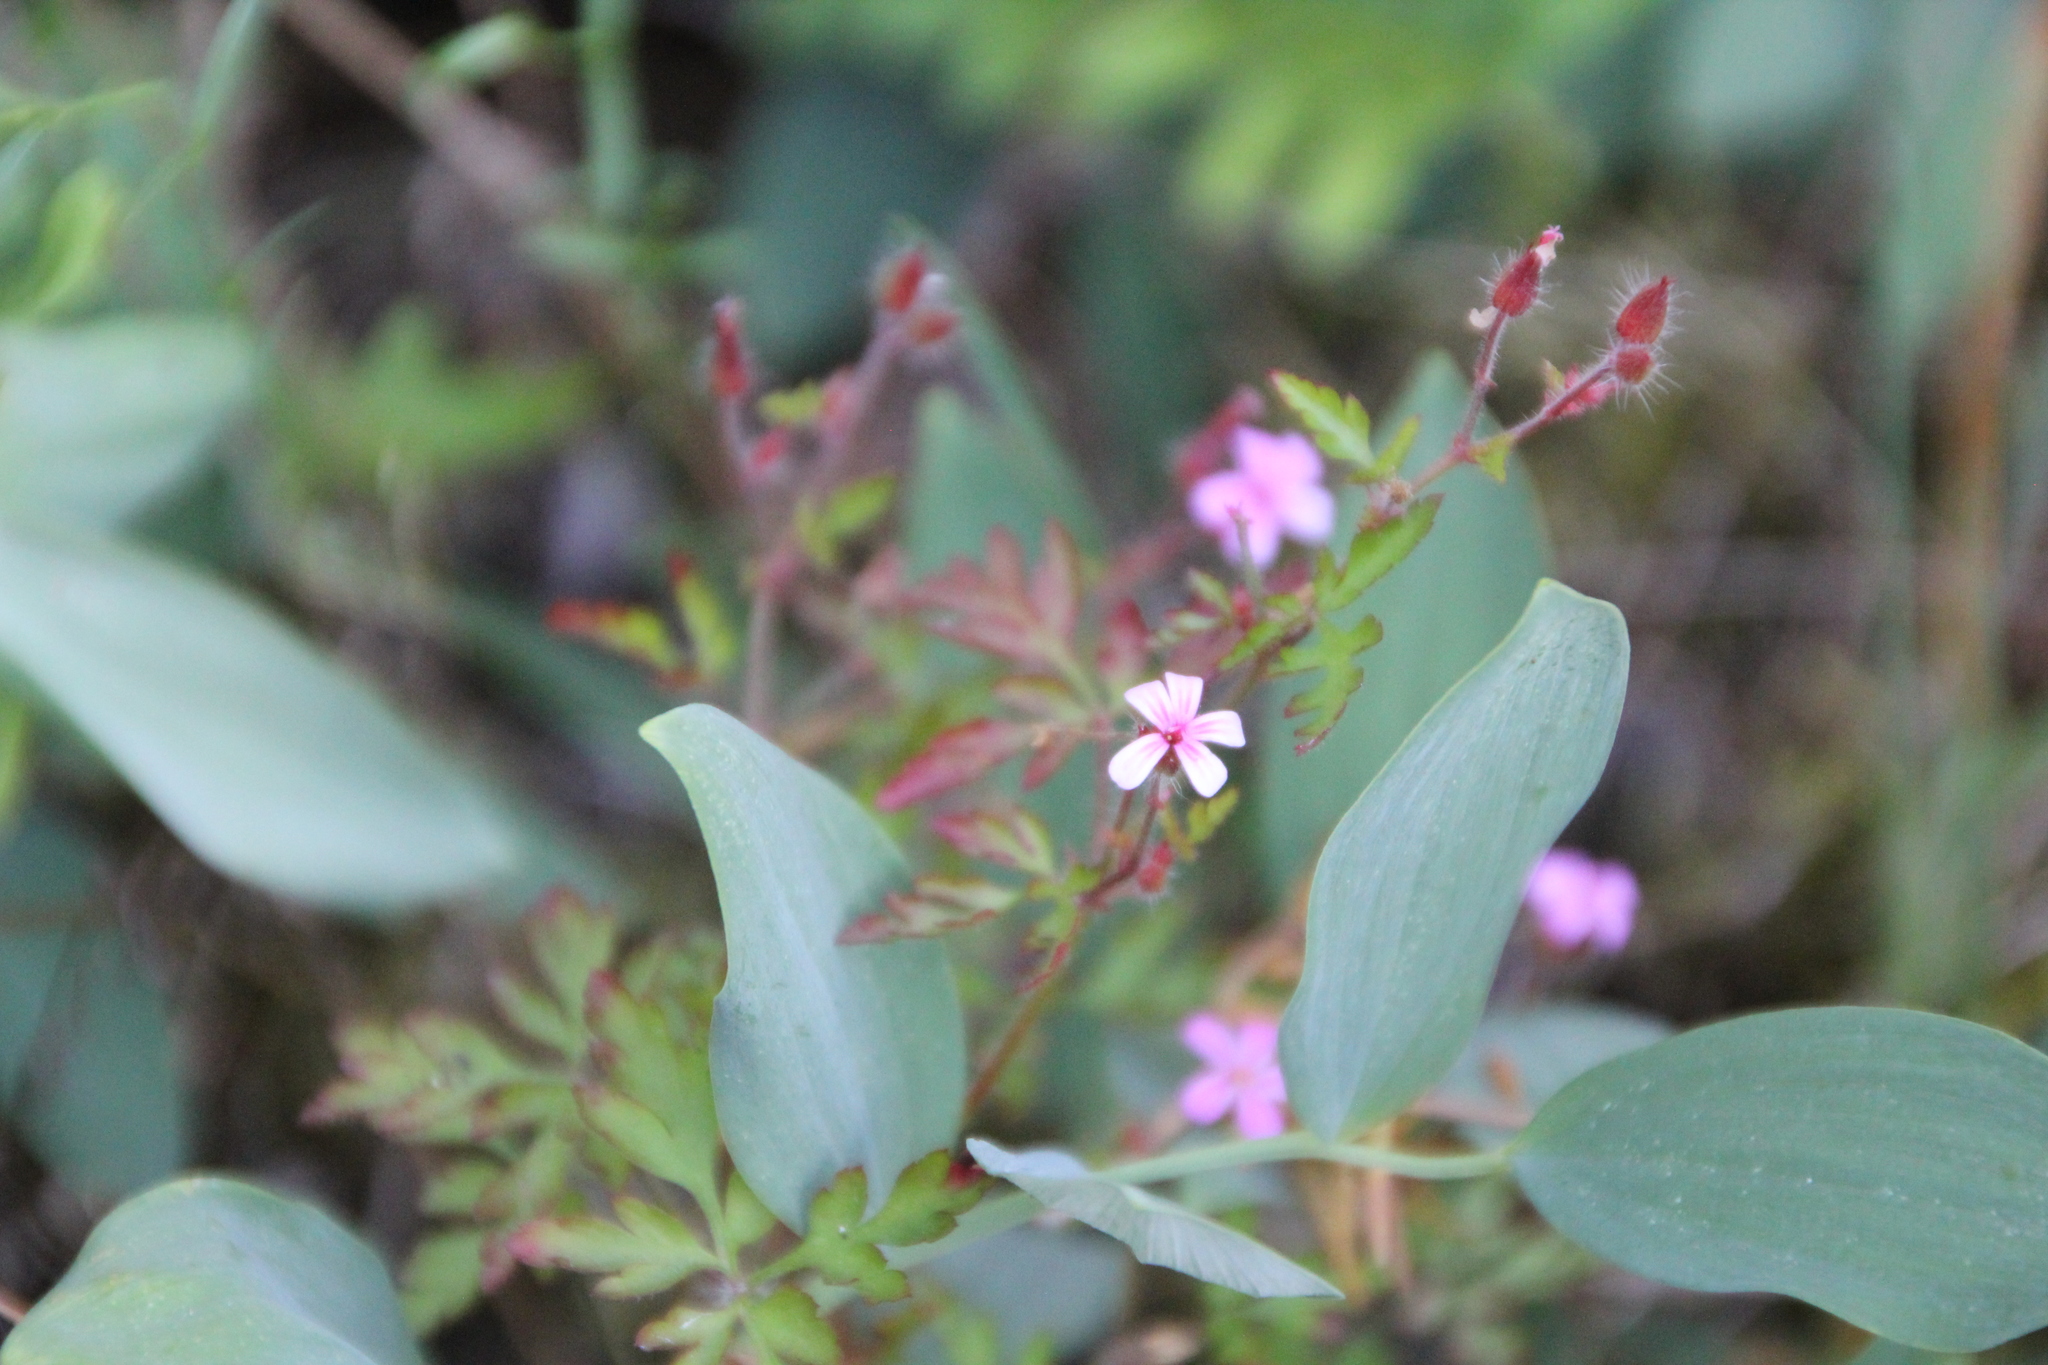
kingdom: Plantae
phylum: Tracheophyta
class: Magnoliopsida
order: Geraniales
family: Geraniaceae
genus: Geranium
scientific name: Geranium robertianum
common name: Herb-robert
